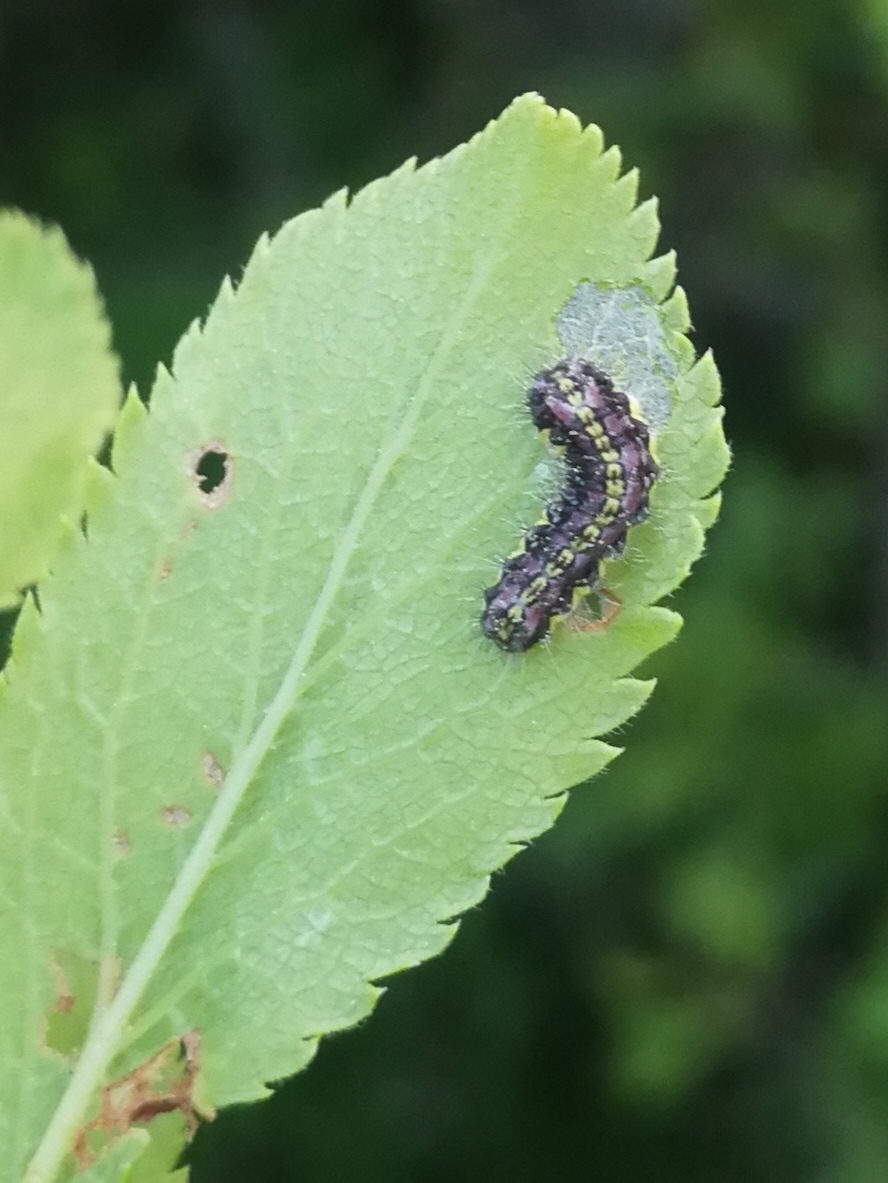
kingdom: Animalia
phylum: Arthropoda
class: Insecta
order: Lepidoptera
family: Zygaenidae
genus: Aglaope
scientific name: Aglaope infausta
